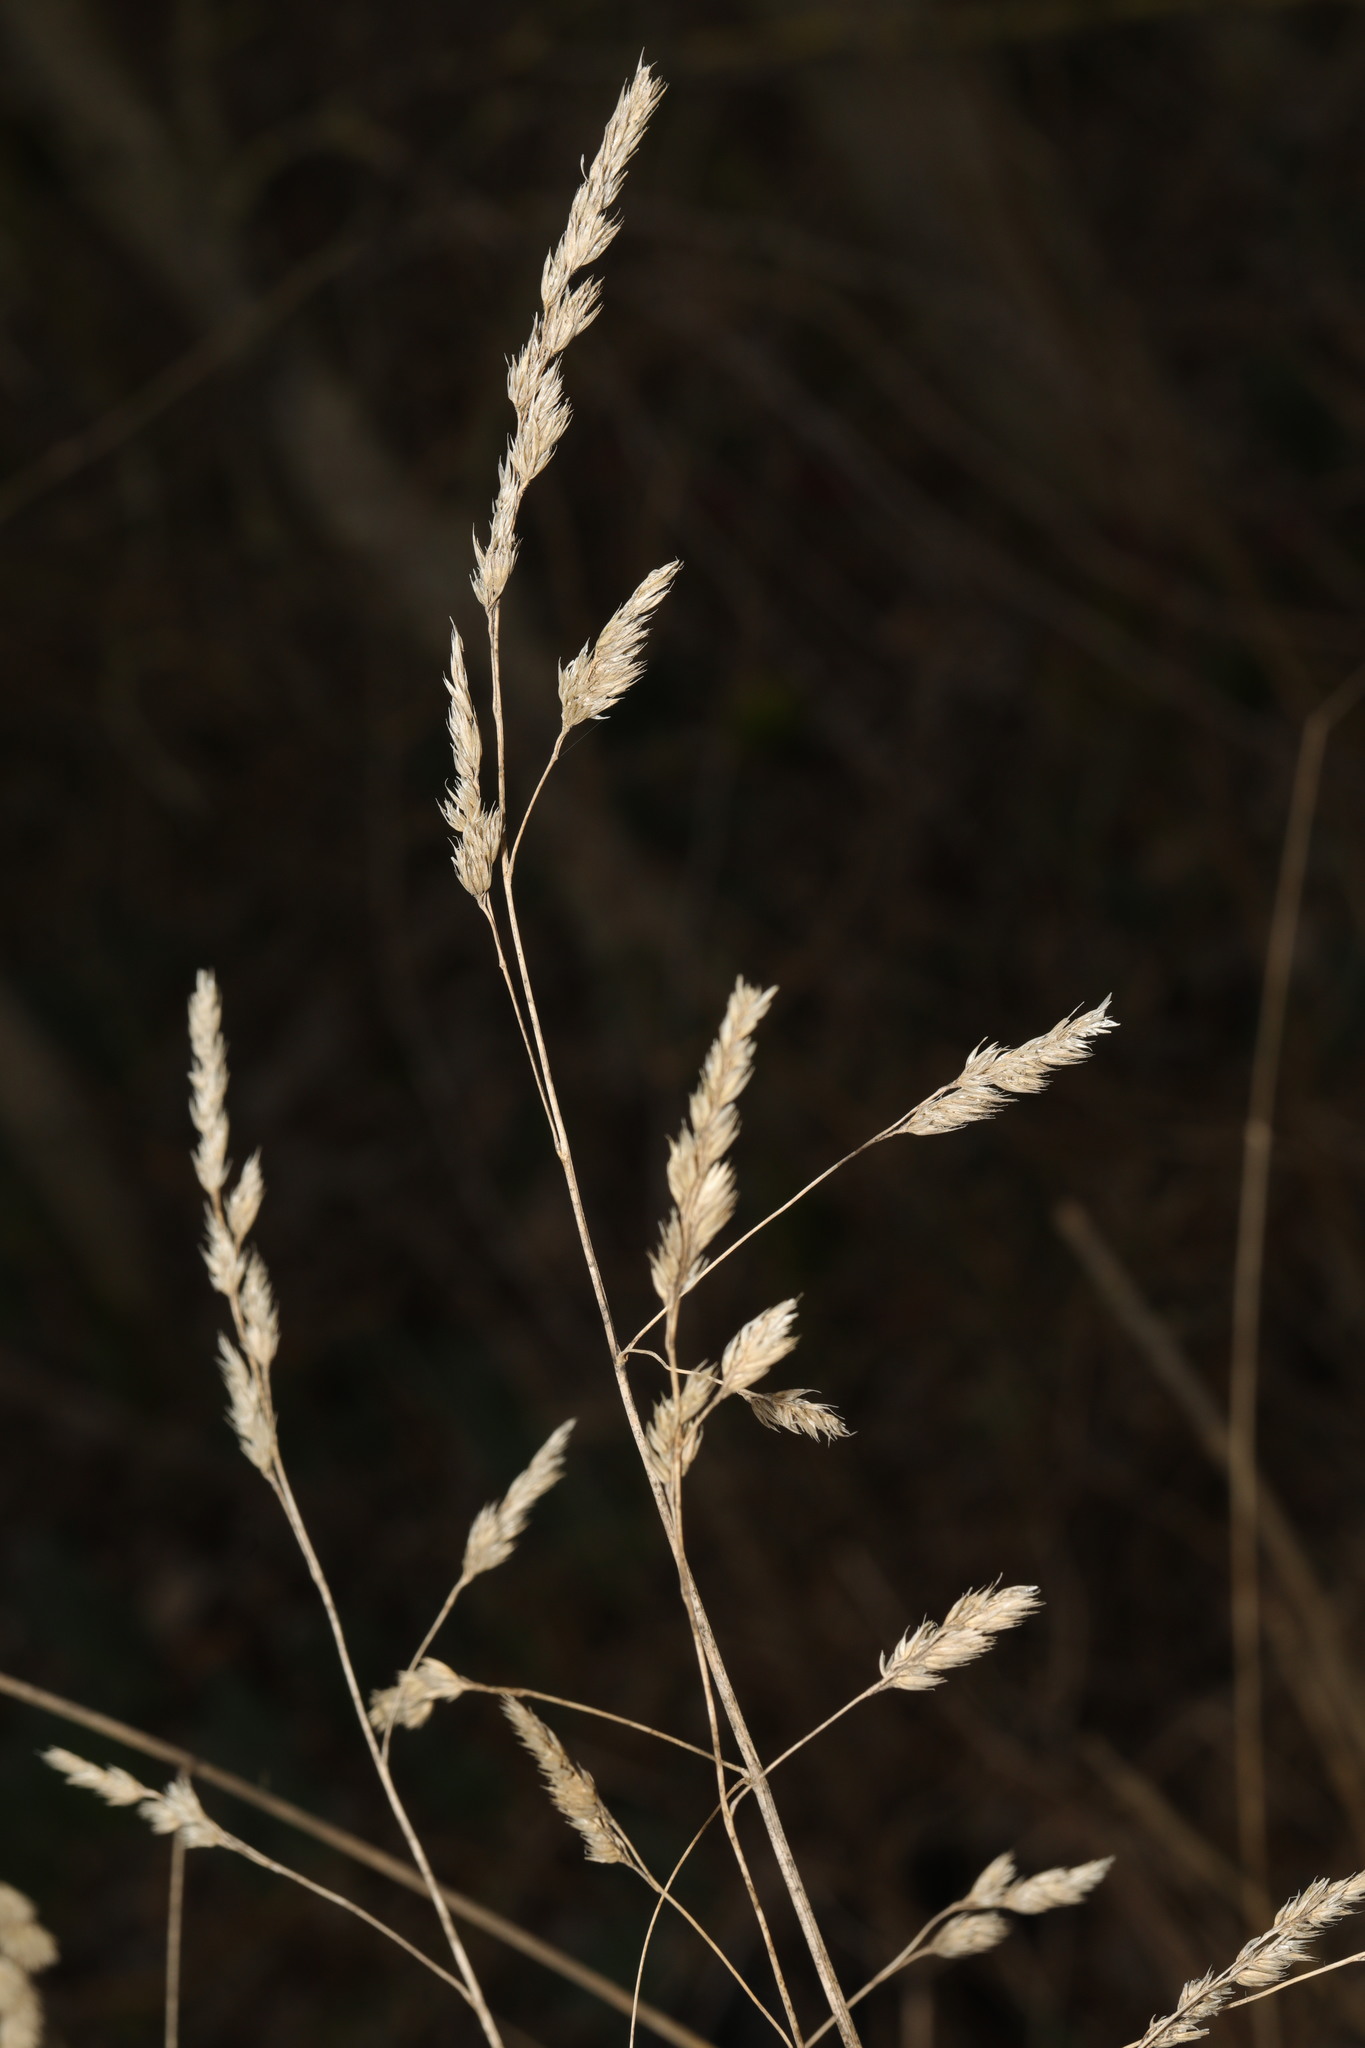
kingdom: Plantae
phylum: Tracheophyta
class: Liliopsida
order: Poales
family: Poaceae
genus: Dactylis
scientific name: Dactylis glomerata
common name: Orchardgrass
